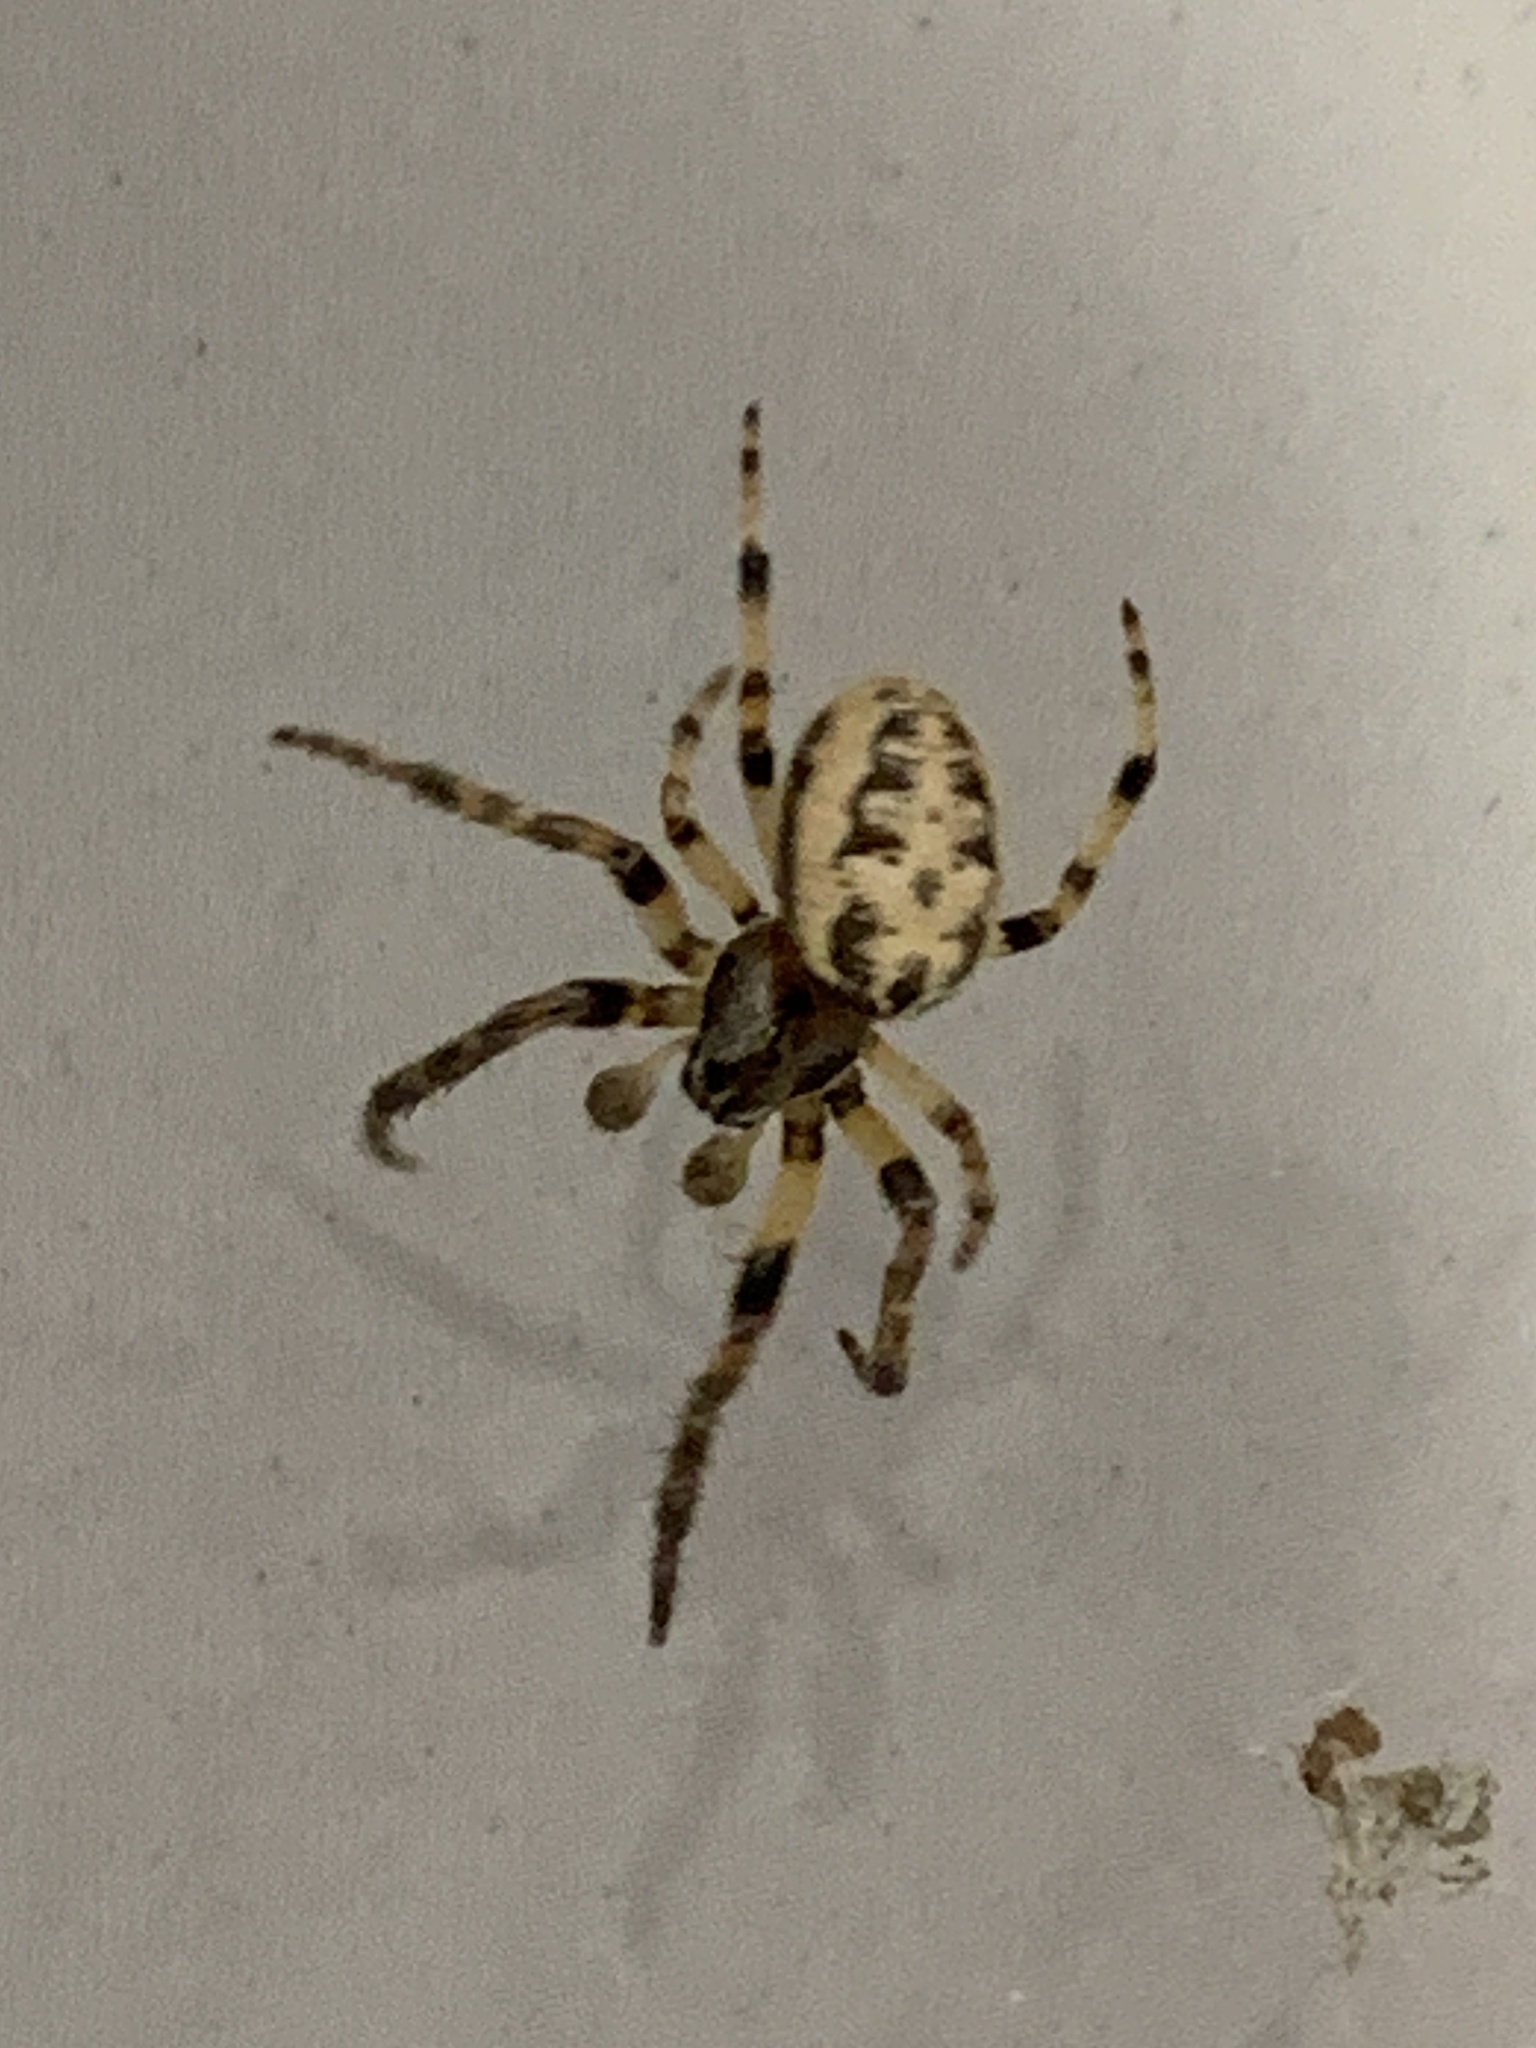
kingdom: Animalia
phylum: Arthropoda
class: Arachnida
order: Araneae
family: Araneidae
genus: Larinioides
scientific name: Larinioides cornutus
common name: Furrow orbweaver
